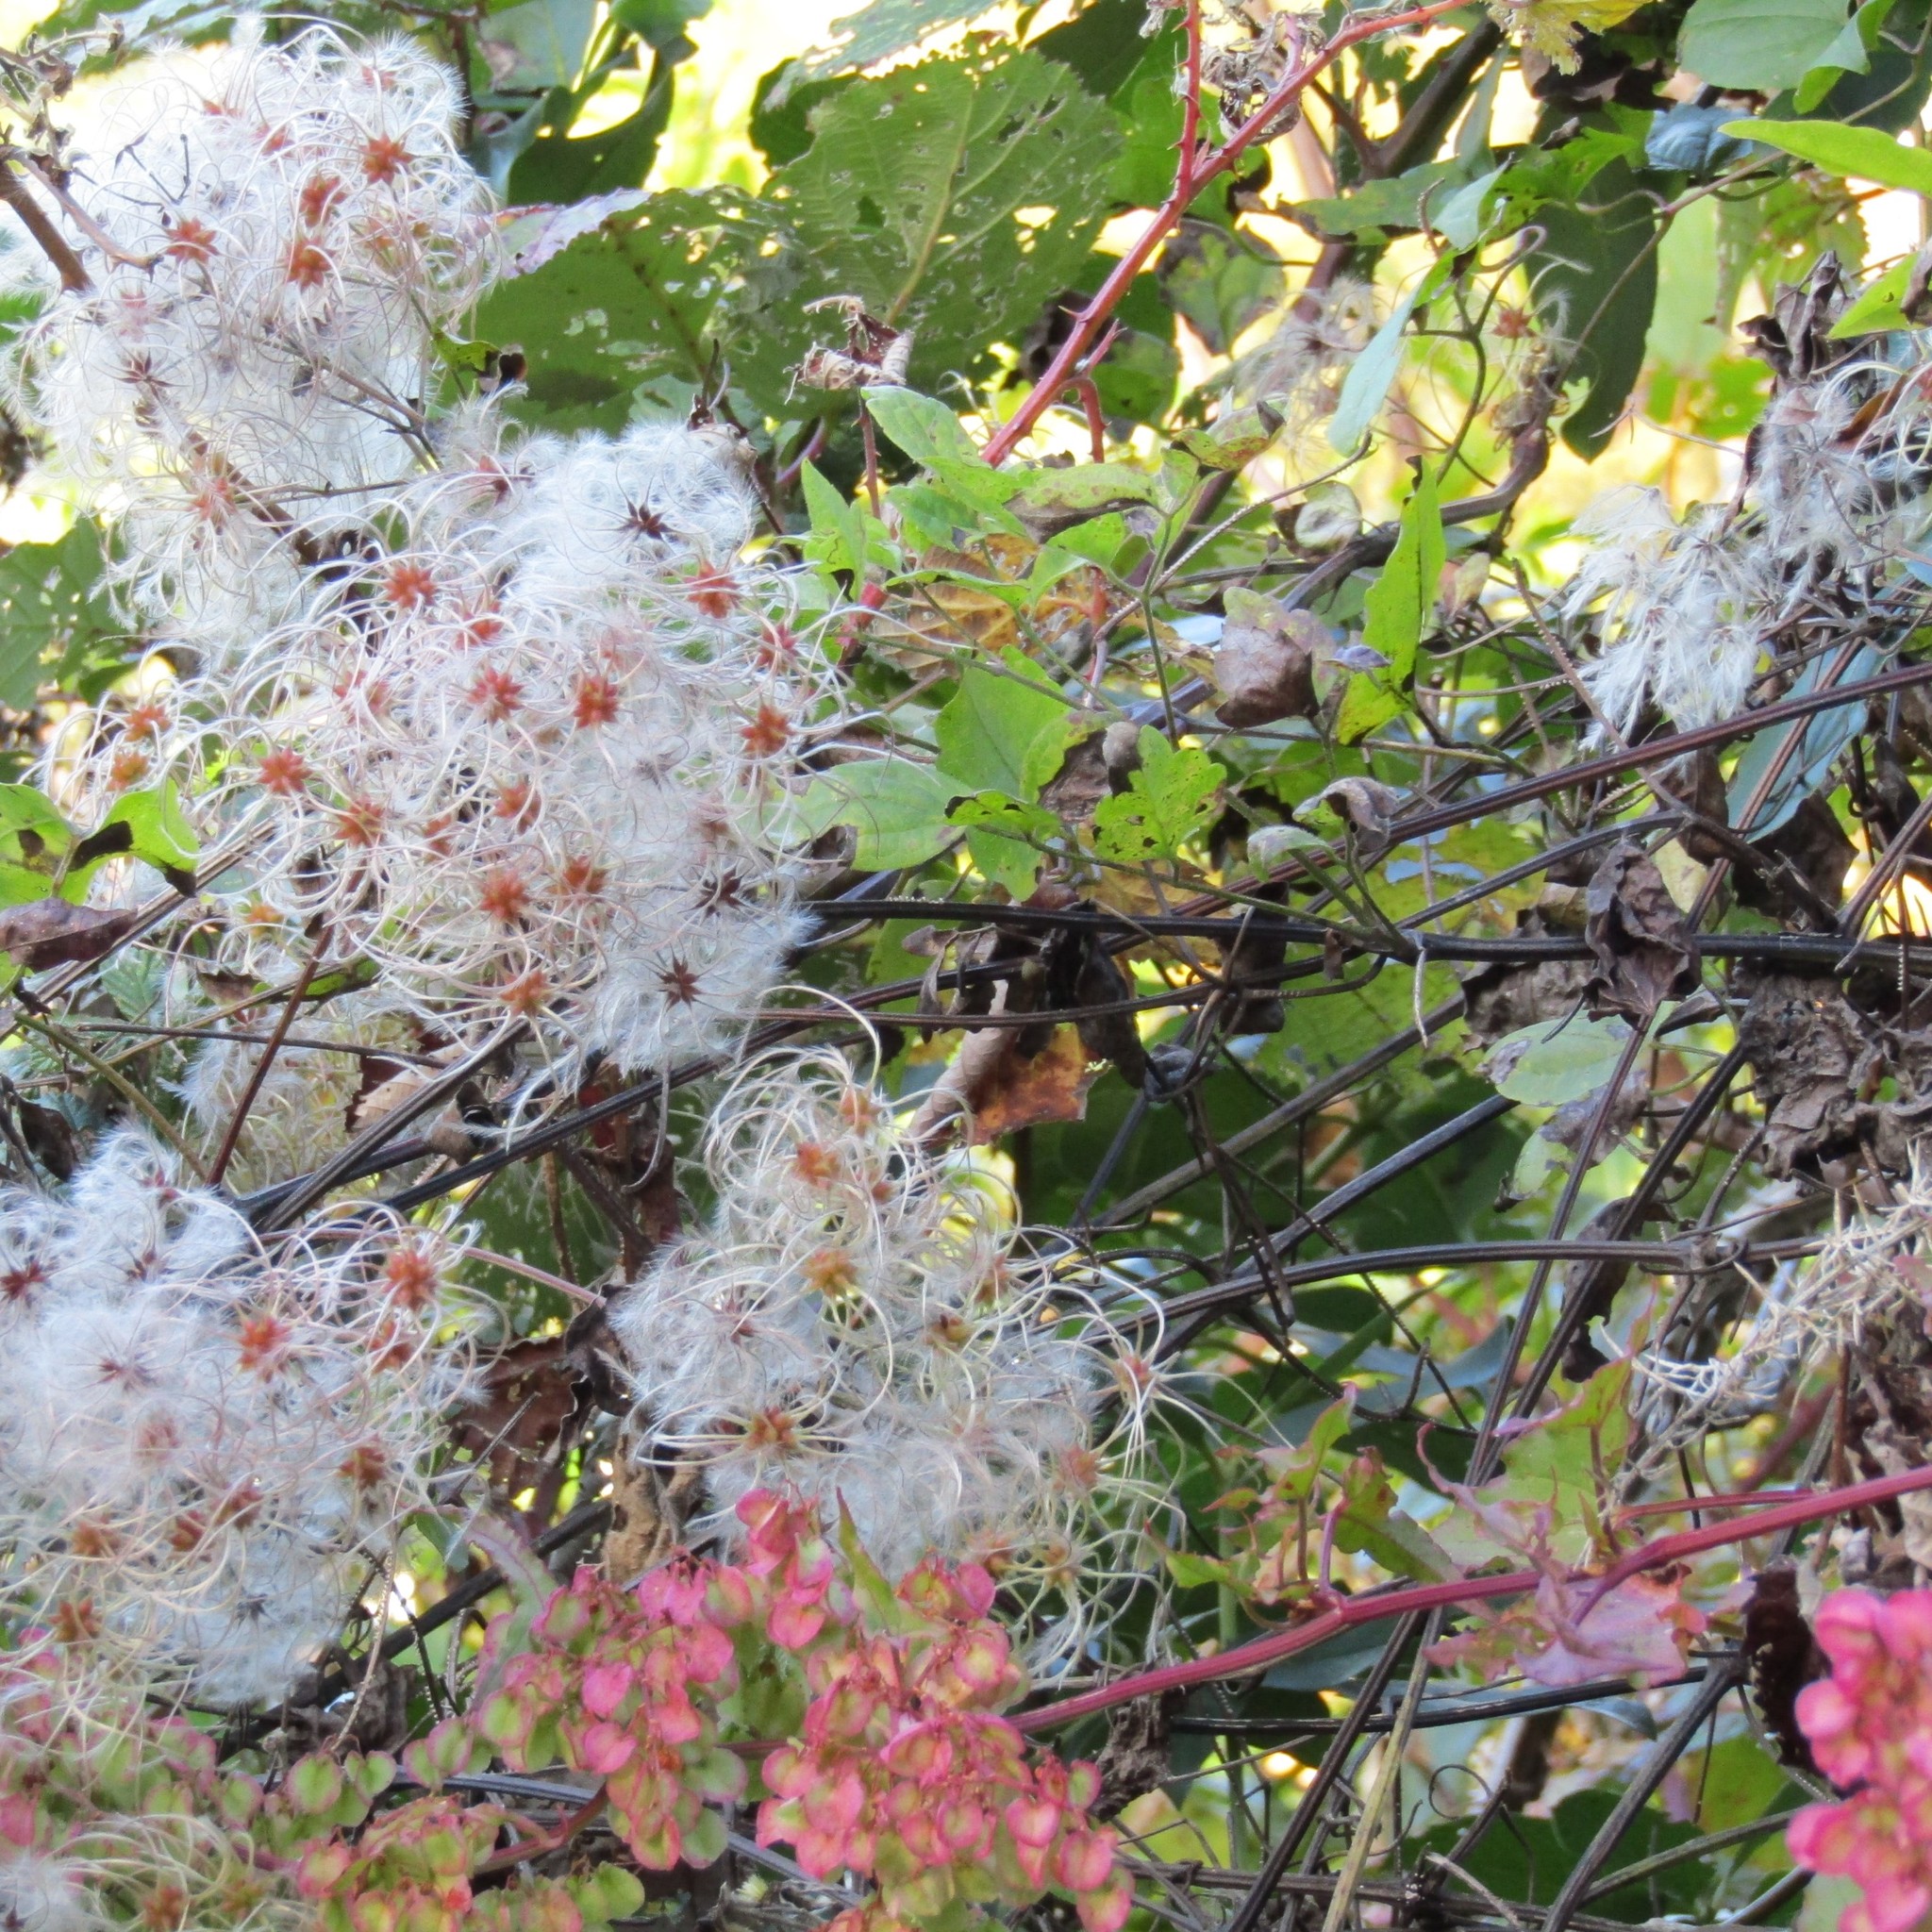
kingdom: Plantae
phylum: Tracheophyta
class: Magnoliopsida
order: Ranunculales
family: Ranunculaceae
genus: Clematis
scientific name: Clematis vitalba
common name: Evergreen clematis
